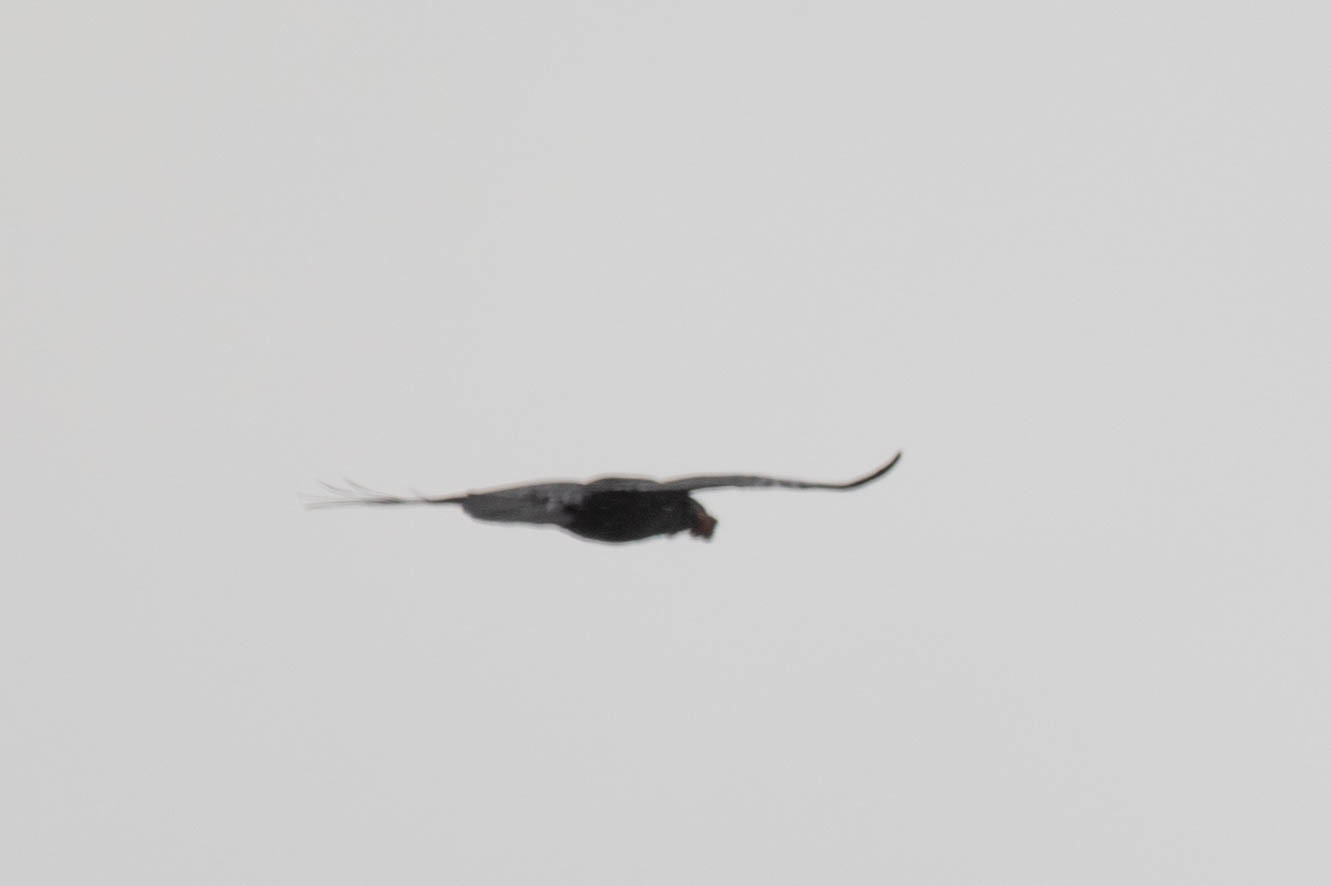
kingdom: Animalia
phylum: Chordata
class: Aves
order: Passeriformes
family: Corvidae
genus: Corvus
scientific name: Corvus corax
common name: Common raven
